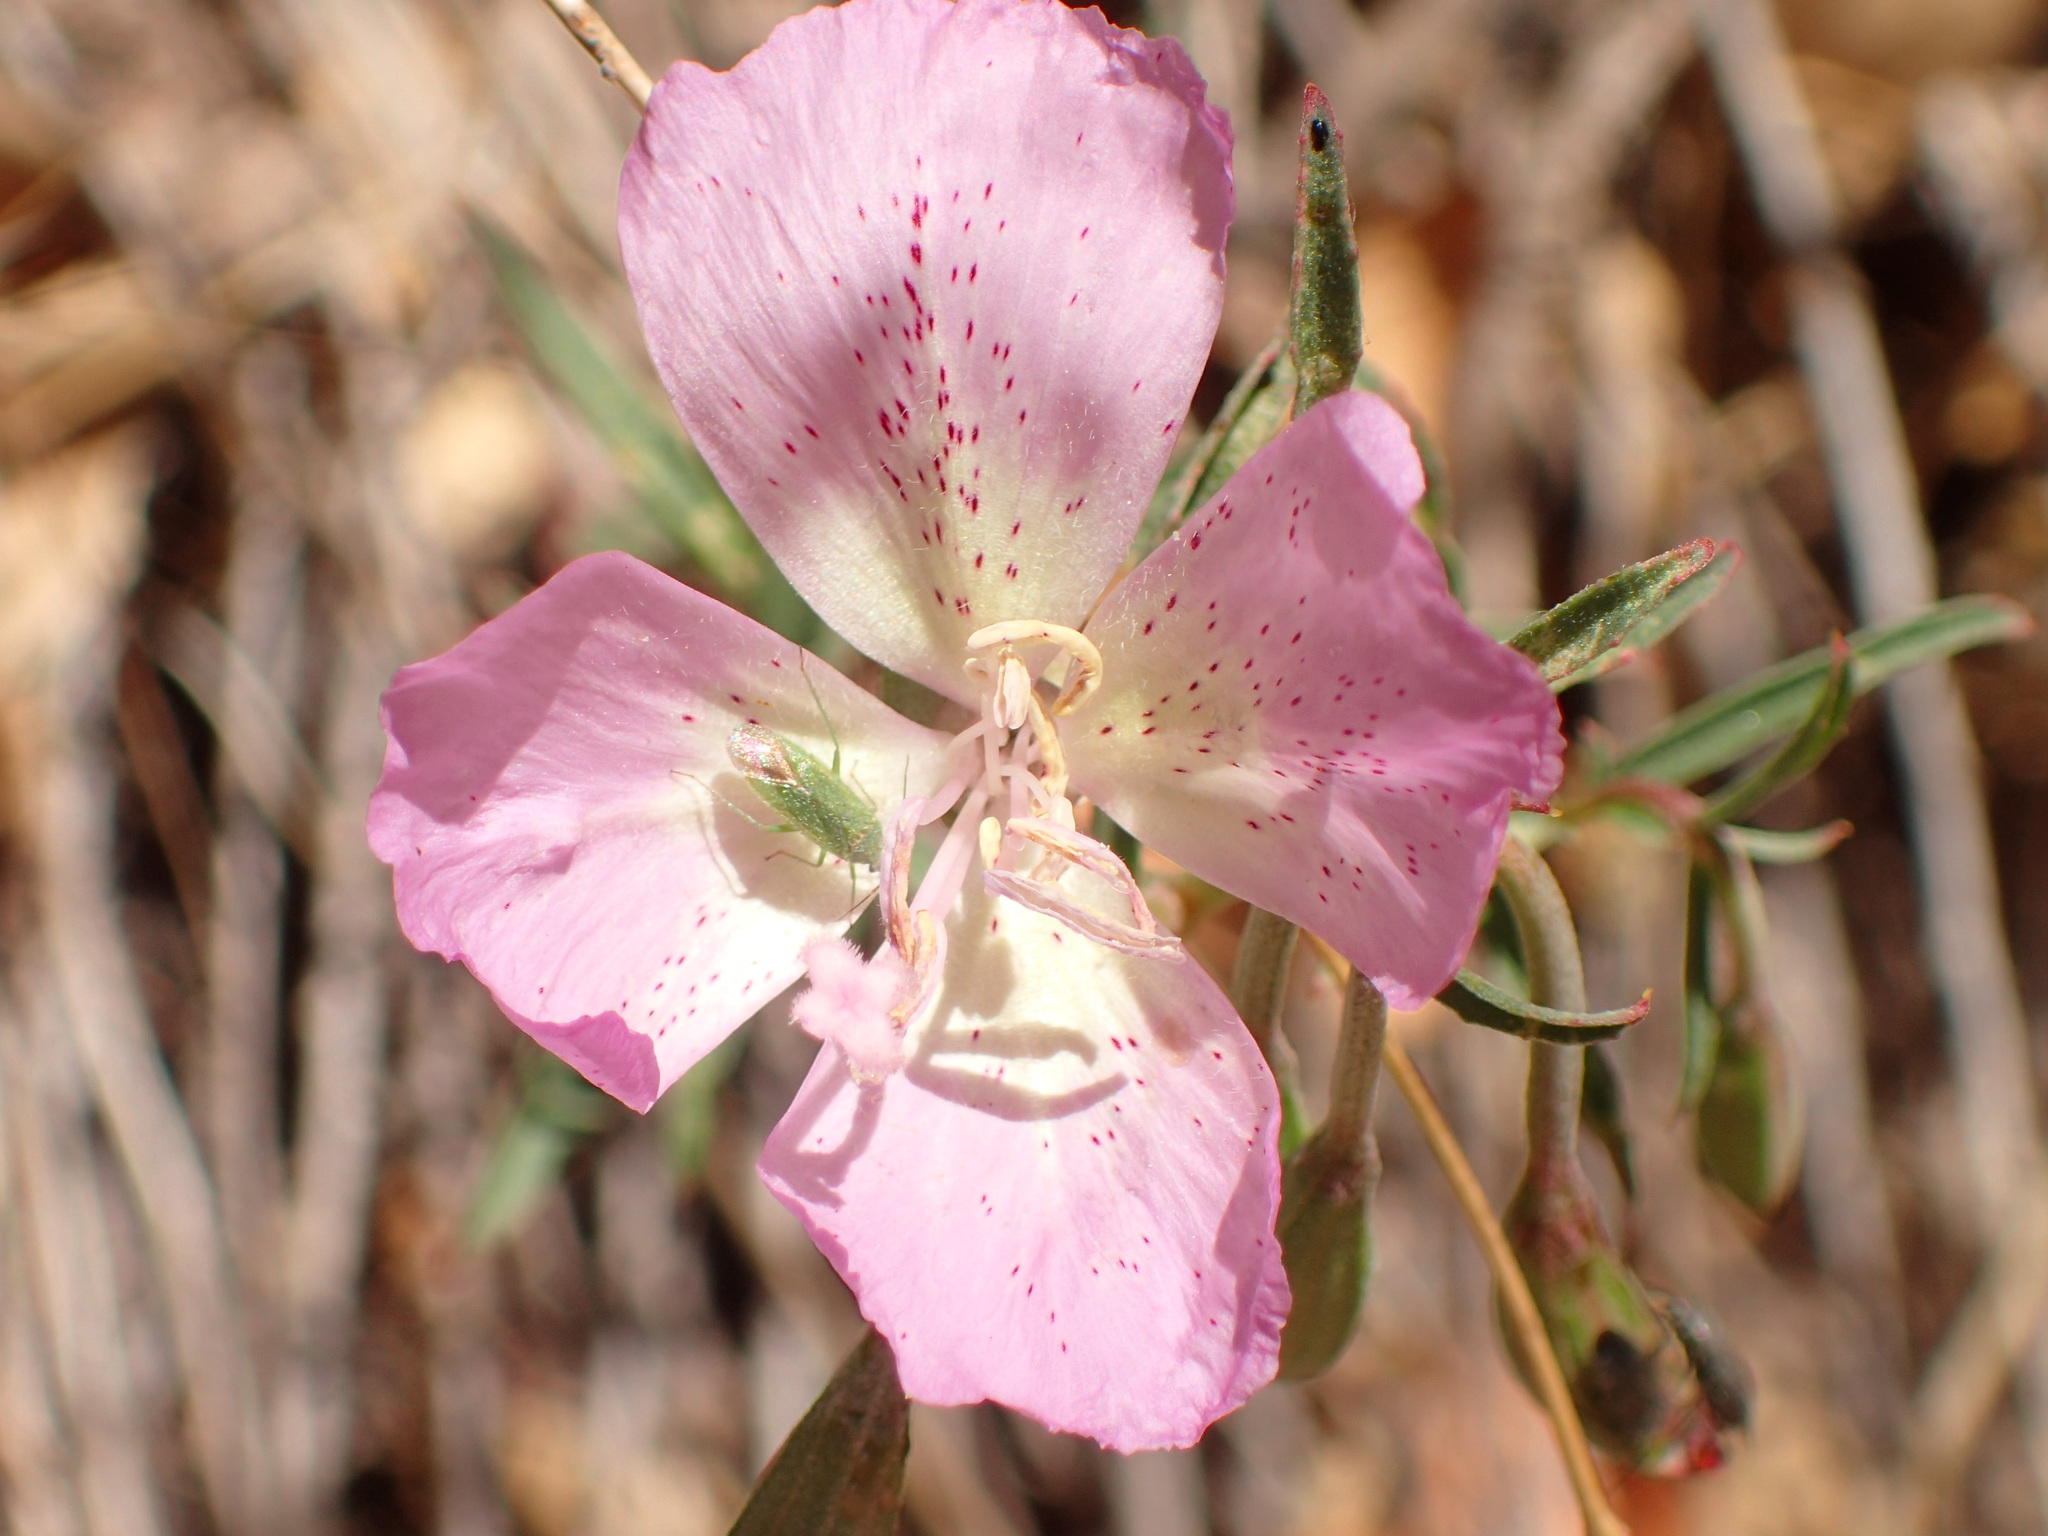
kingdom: Plantae
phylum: Tracheophyta
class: Magnoliopsida
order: Myrtales
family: Onagraceae
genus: Clarkia
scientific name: Clarkia bottae
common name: Punch-bowl godetia
